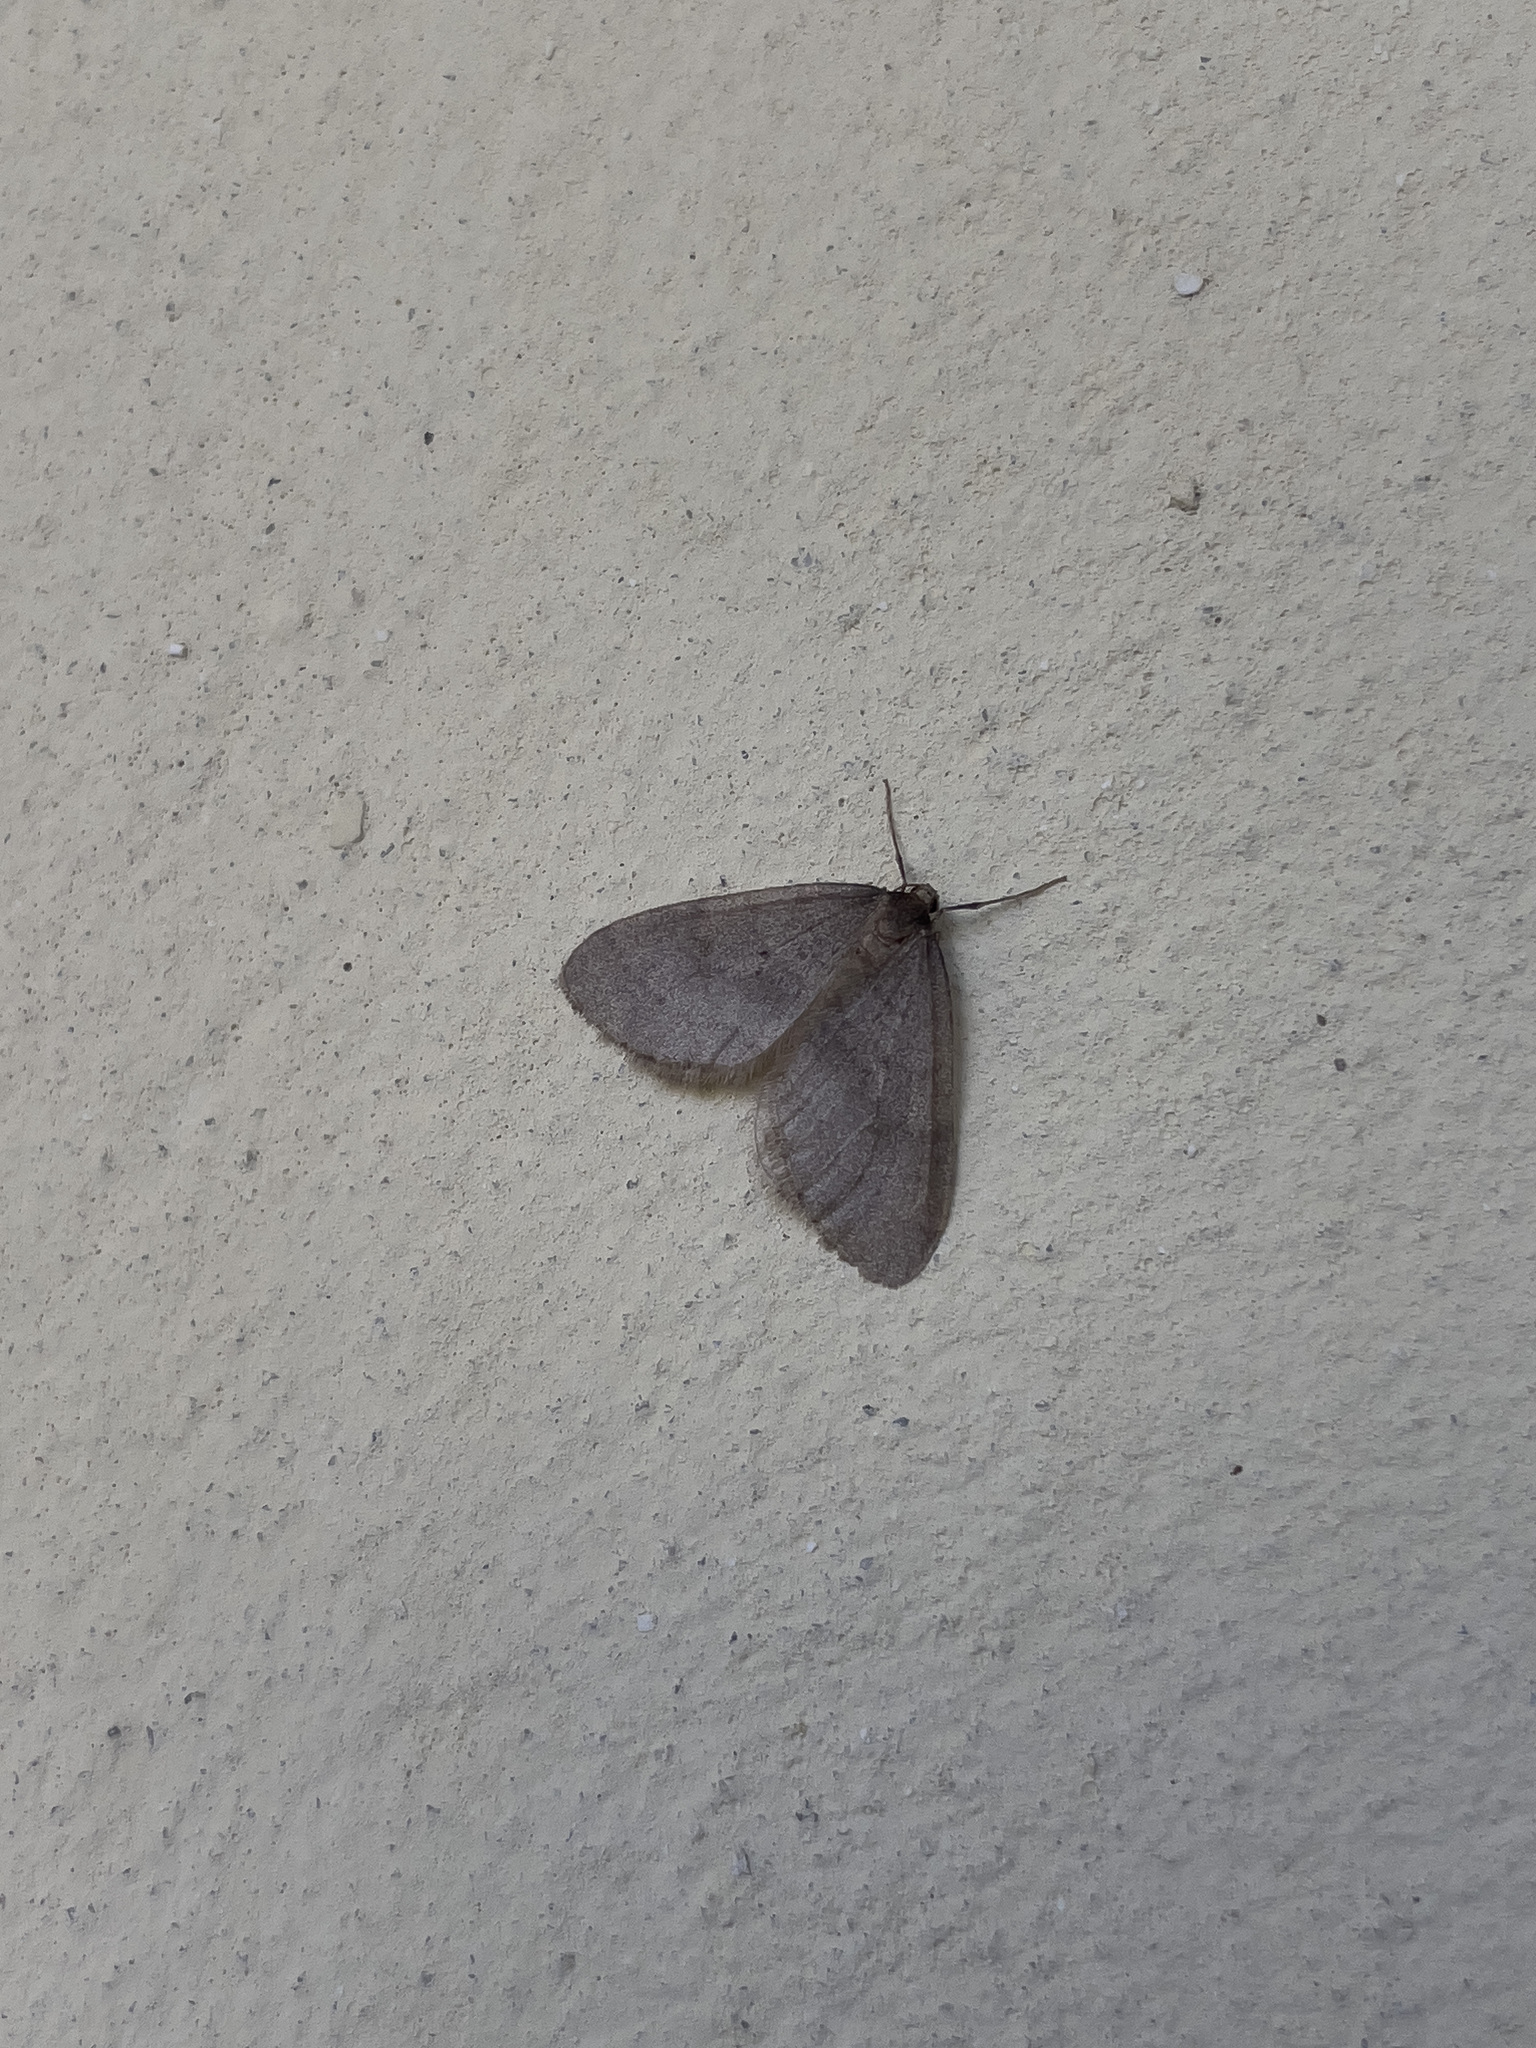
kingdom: Animalia
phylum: Arthropoda
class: Insecta
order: Lepidoptera
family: Geometridae
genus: Operophtera
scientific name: Operophtera brumata
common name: Winter moth
